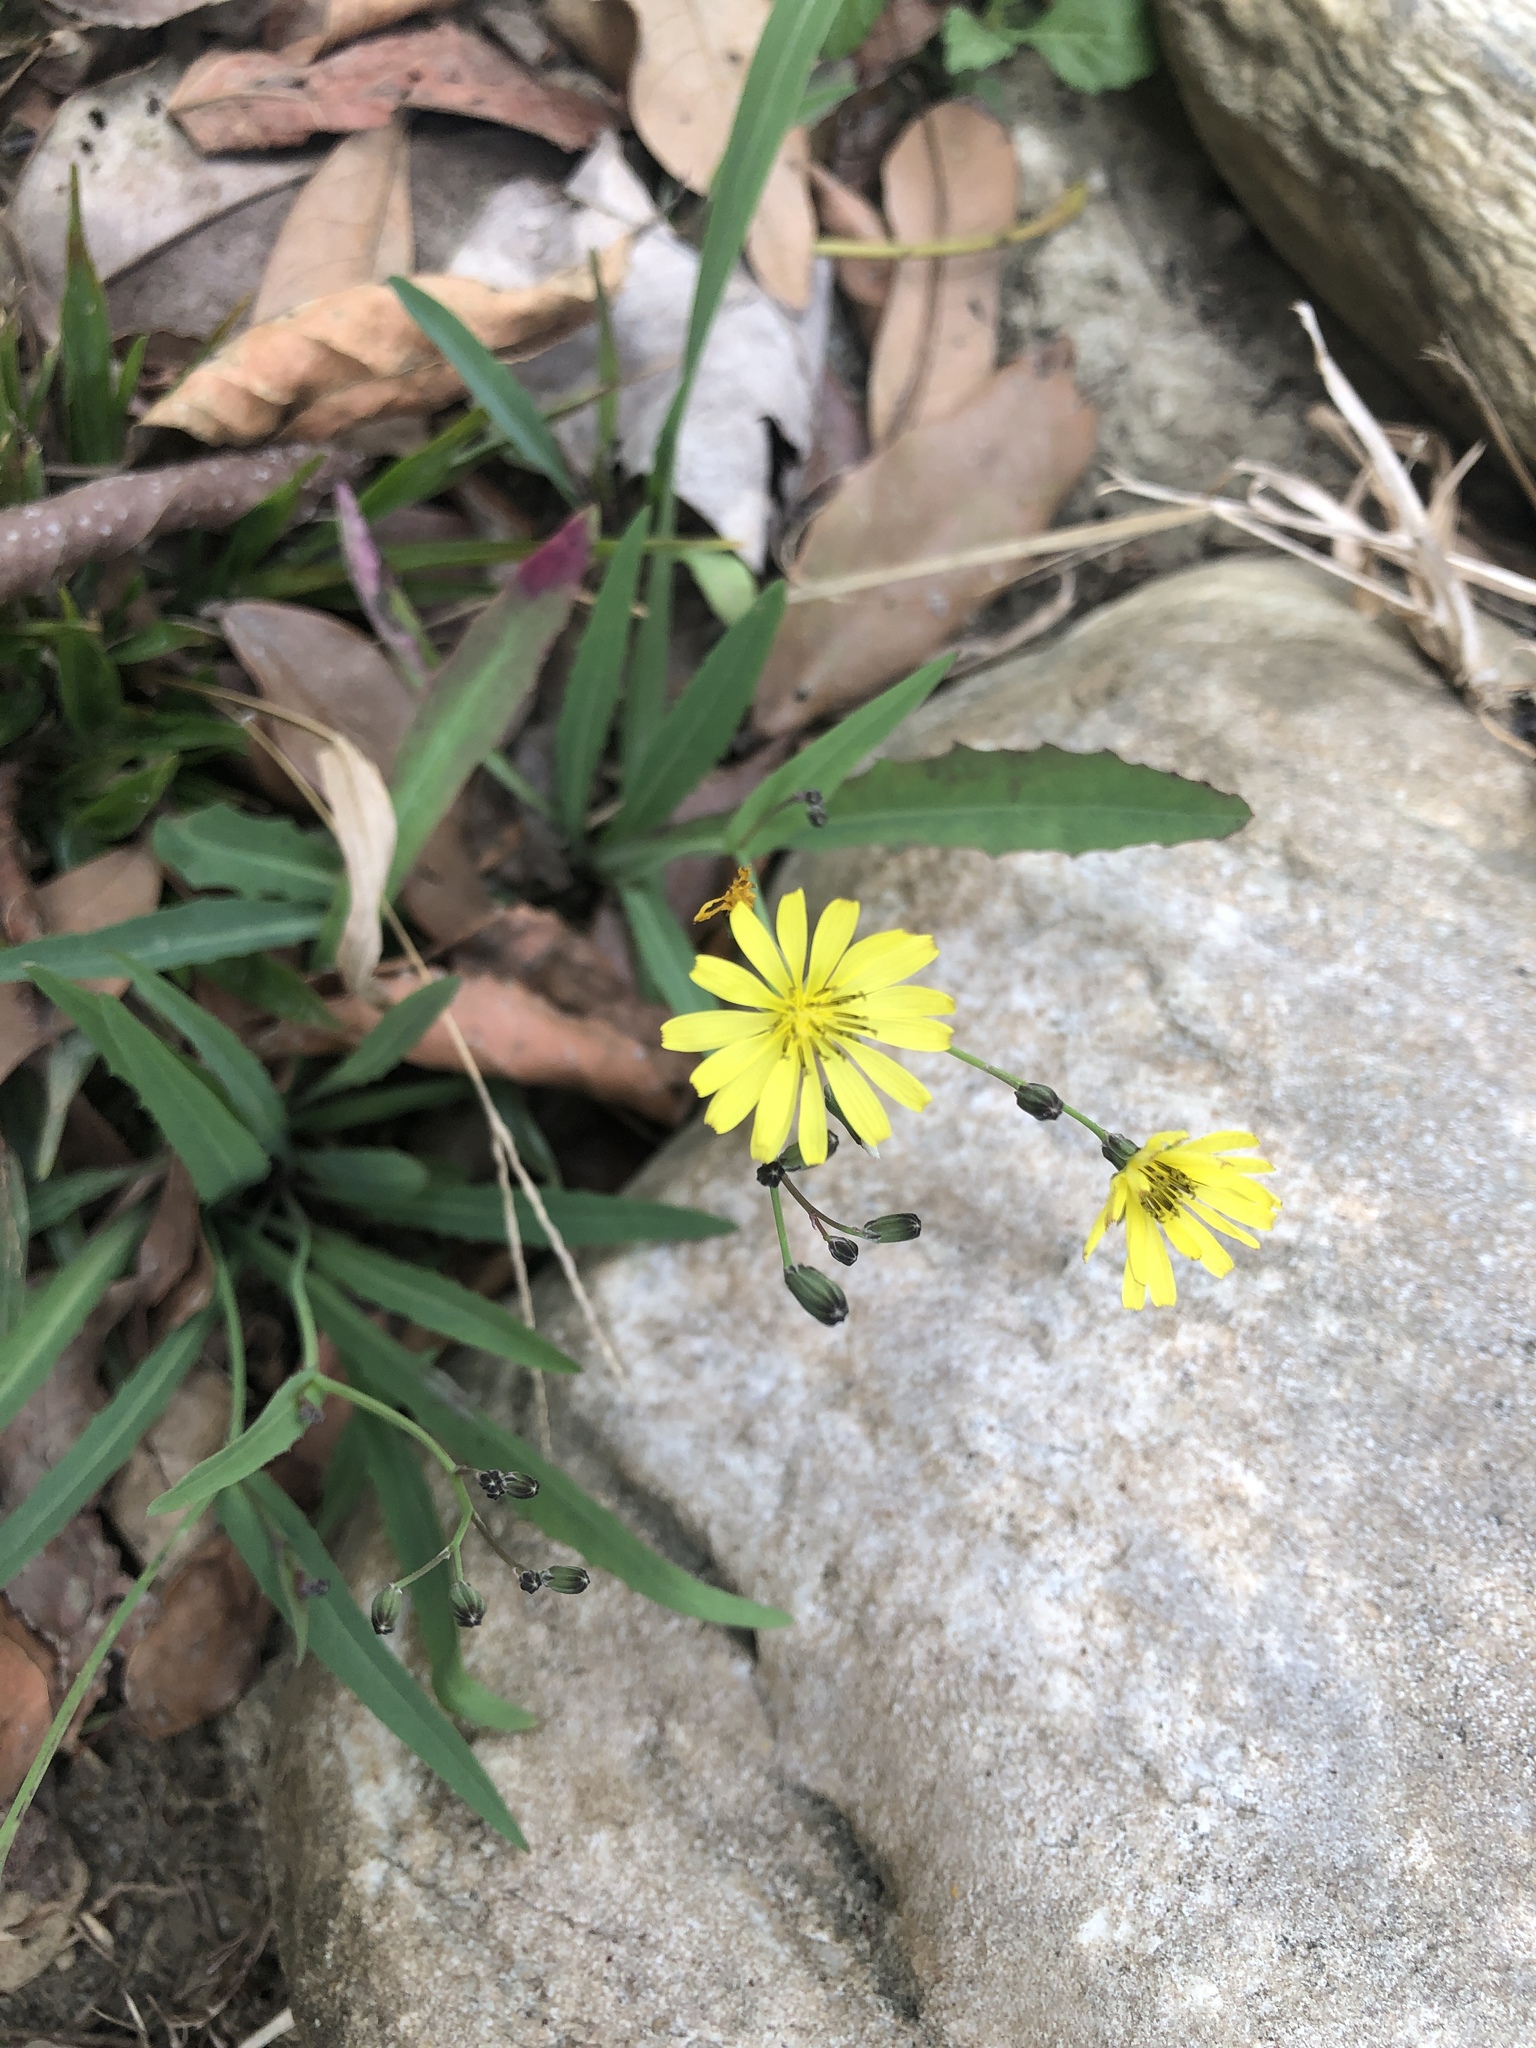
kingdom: Plantae
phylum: Tracheophyta
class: Magnoliopsida
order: Asterales
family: Asteraceae
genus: Ixeris
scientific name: Ixeris chinensis
